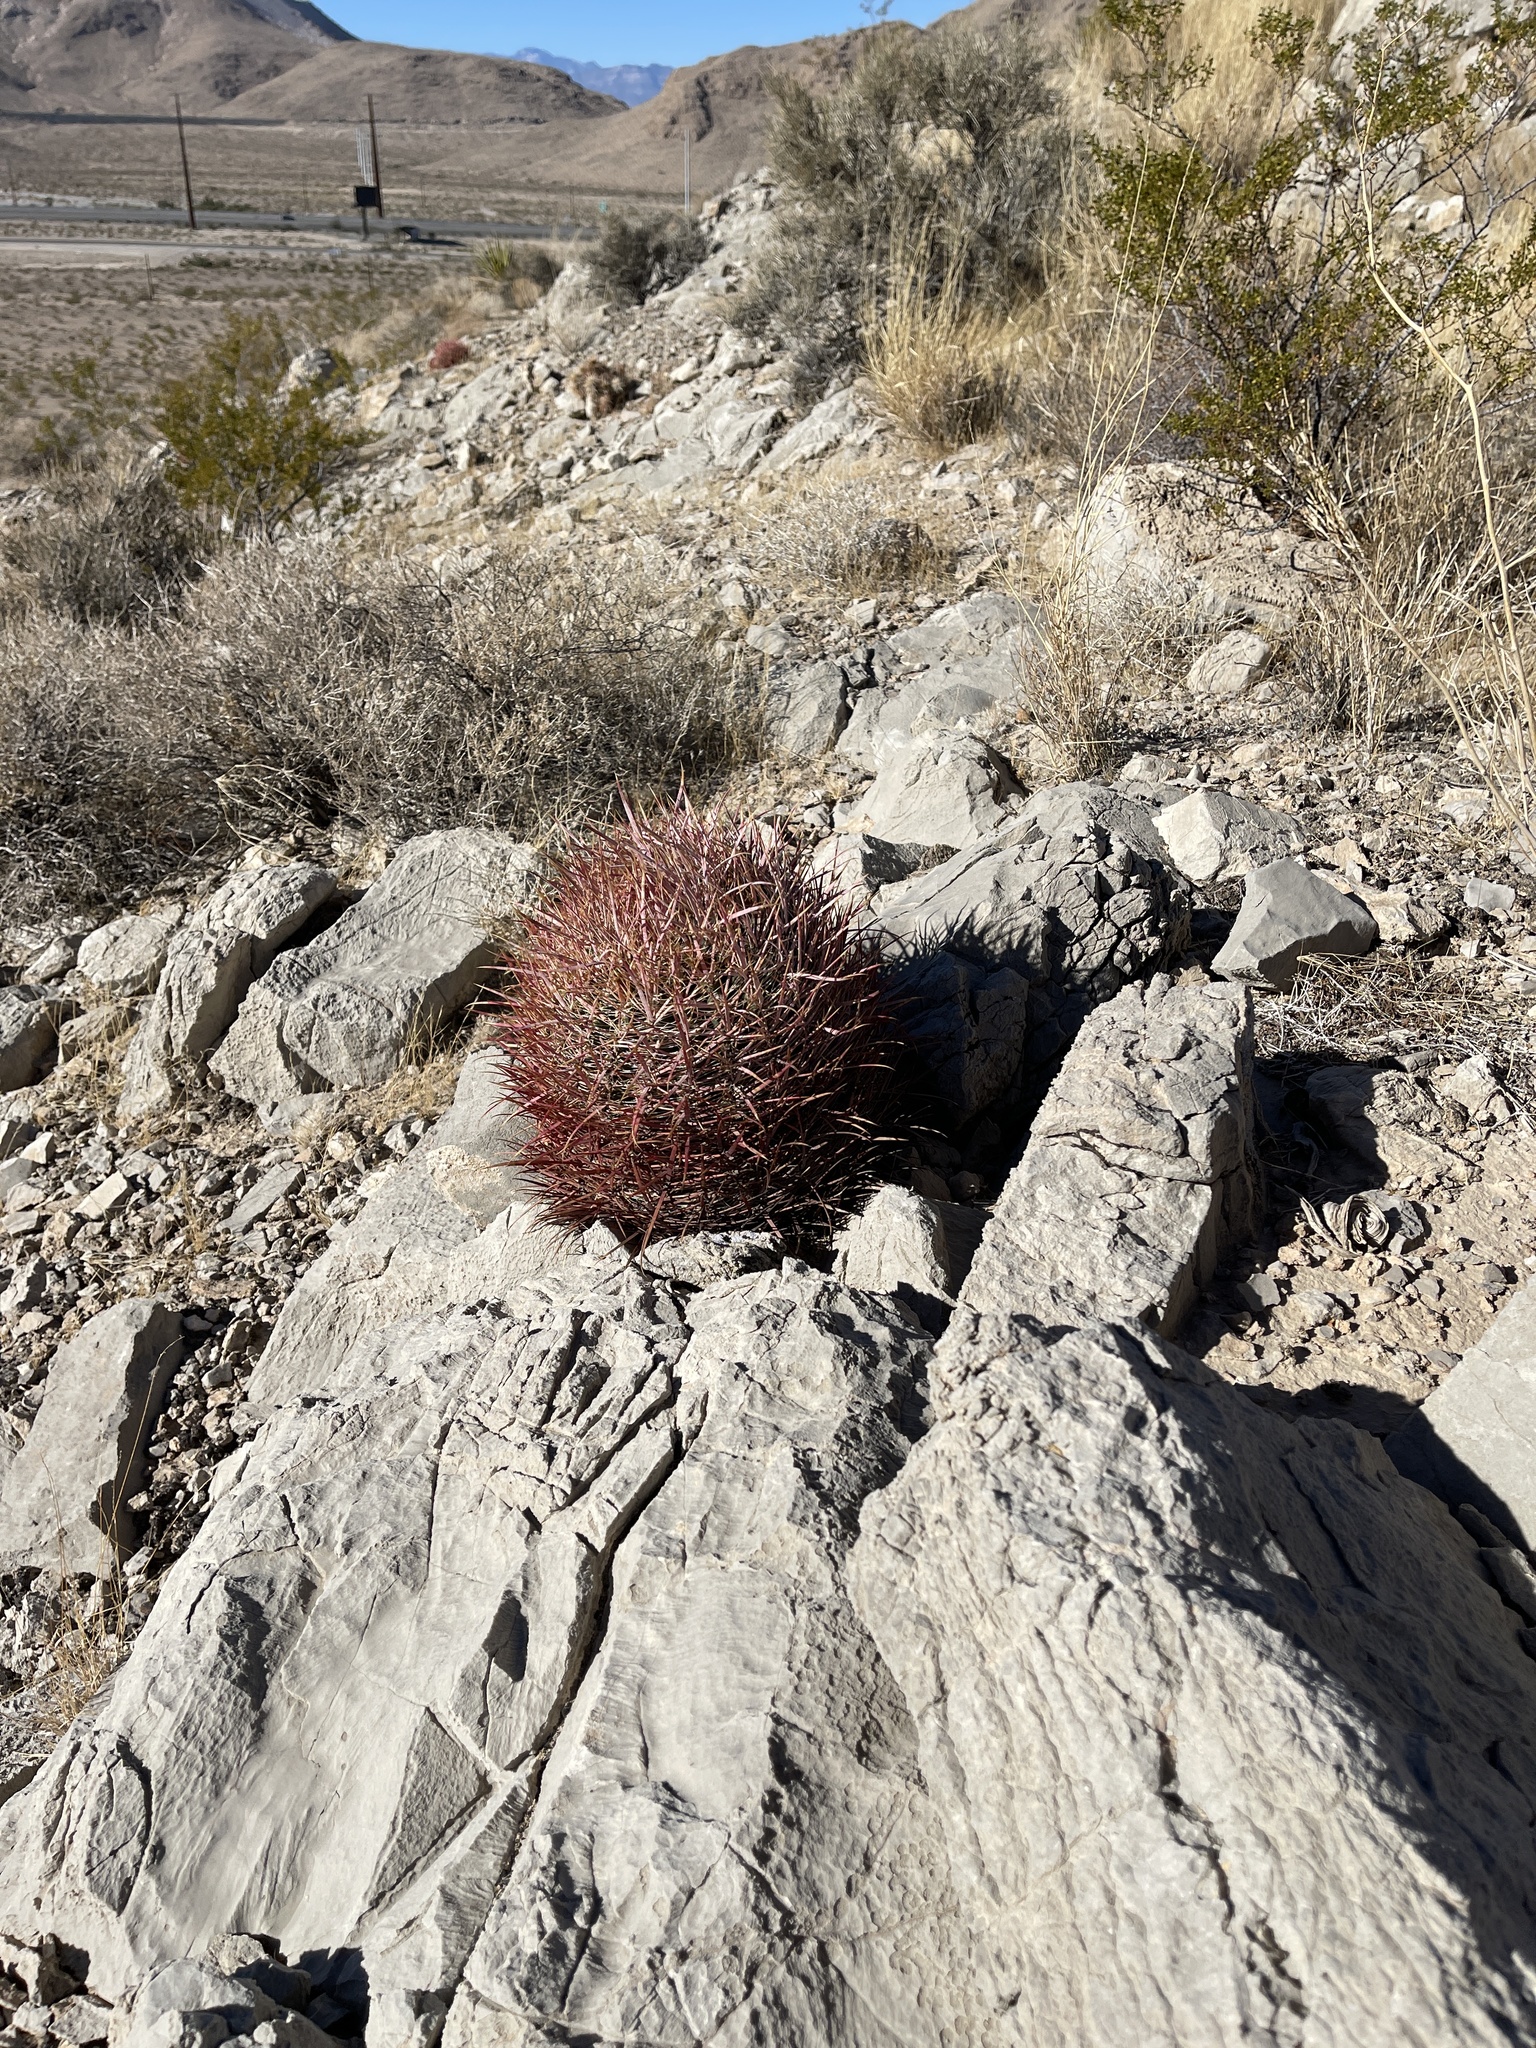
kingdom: Plantae
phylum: Tracheophyta
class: Magnoliopsida
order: Caryophyllales
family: Cactaceae
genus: Ferocactus
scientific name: Ferocactus cylindraceus
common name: California barrel cactus
